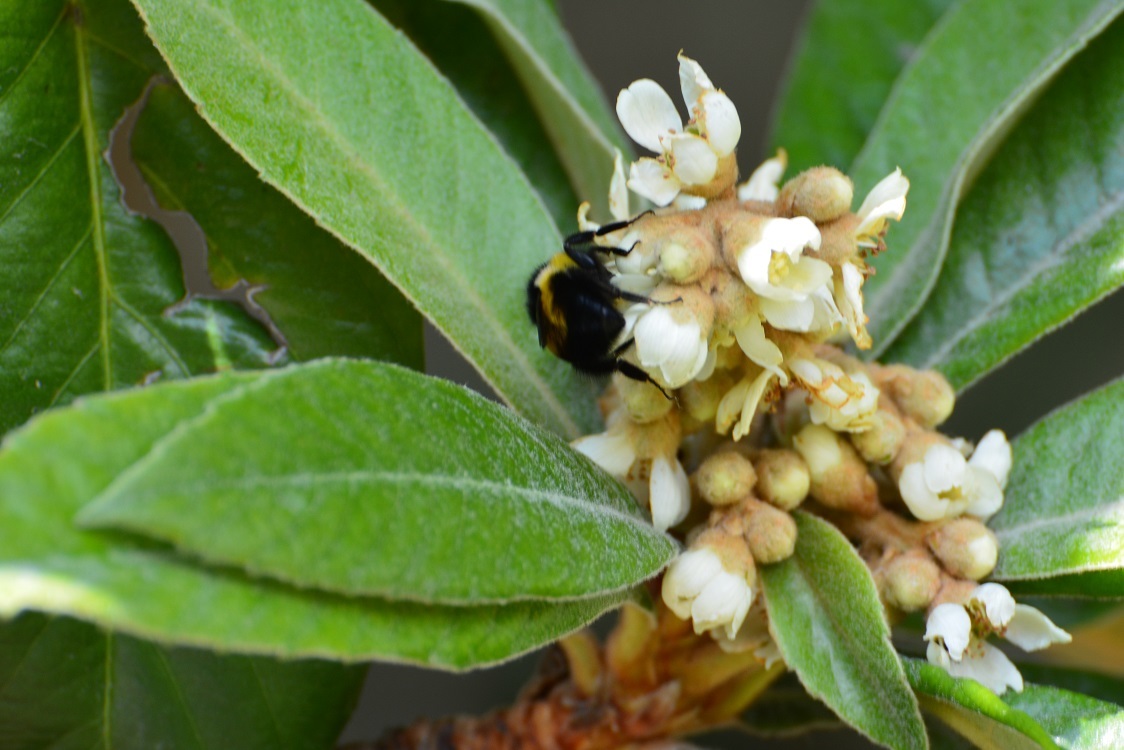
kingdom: Plantae
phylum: Tracheophyta
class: Magnoliopsida
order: Rosales
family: Rosaceae
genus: Rhaphiolepis
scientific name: Rhaphiolepis bibas
